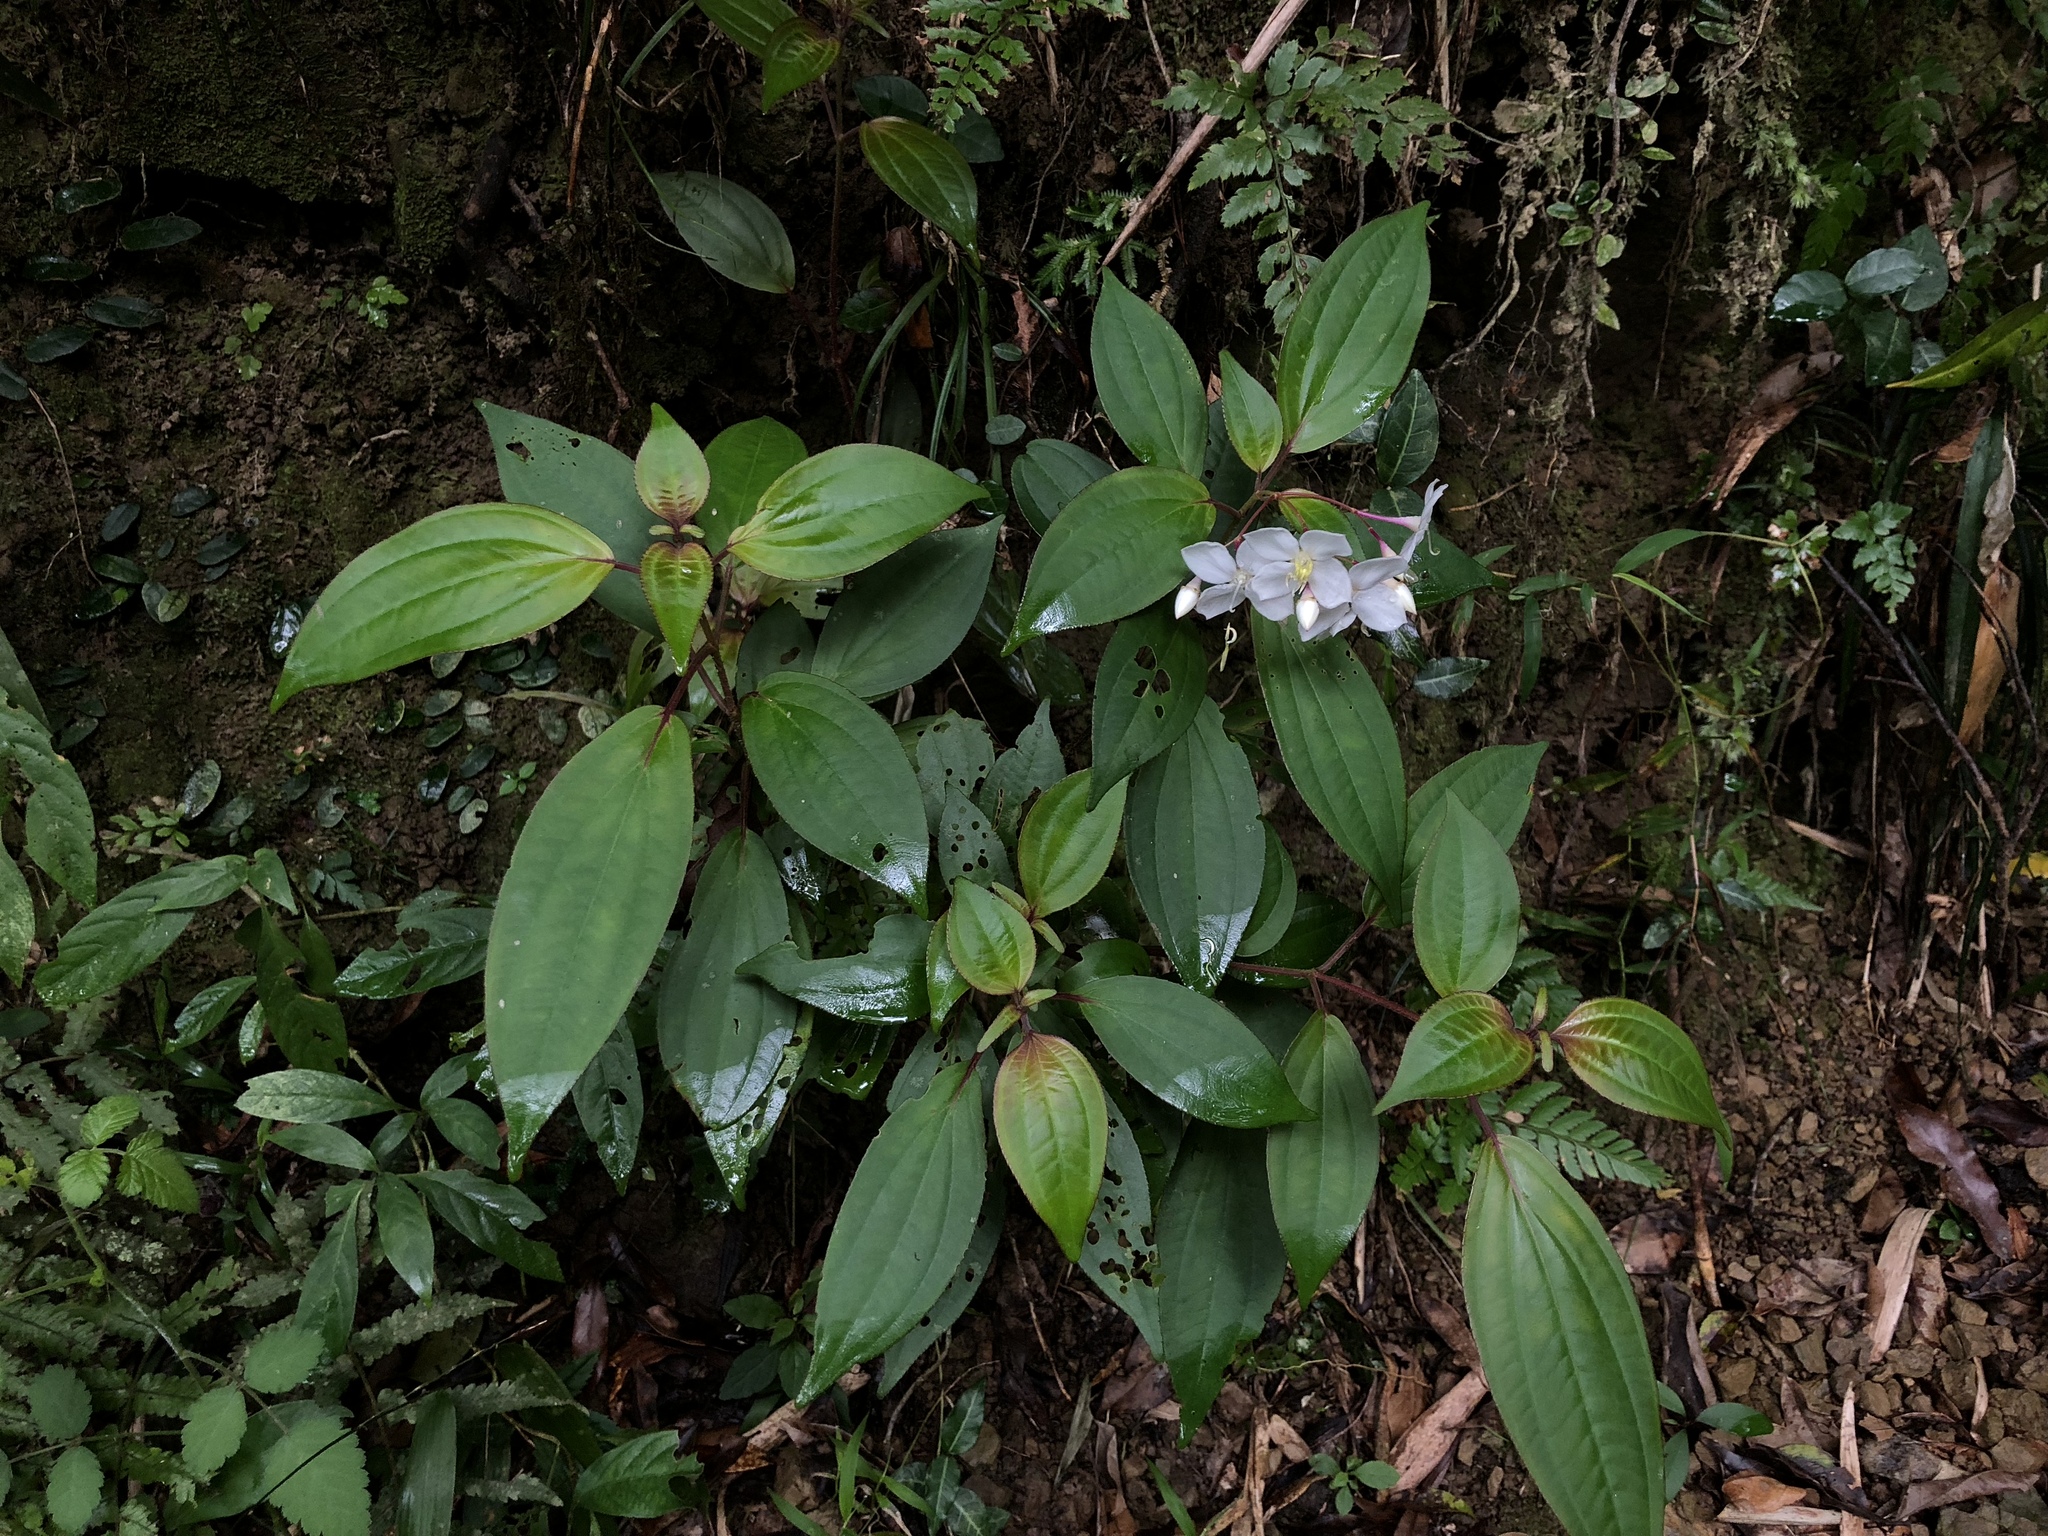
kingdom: Plantae
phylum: Tracheophyta
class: Magnoliopsida
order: Myrtales
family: Melastomataceae
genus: Bredia
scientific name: Bredia oldhamii
